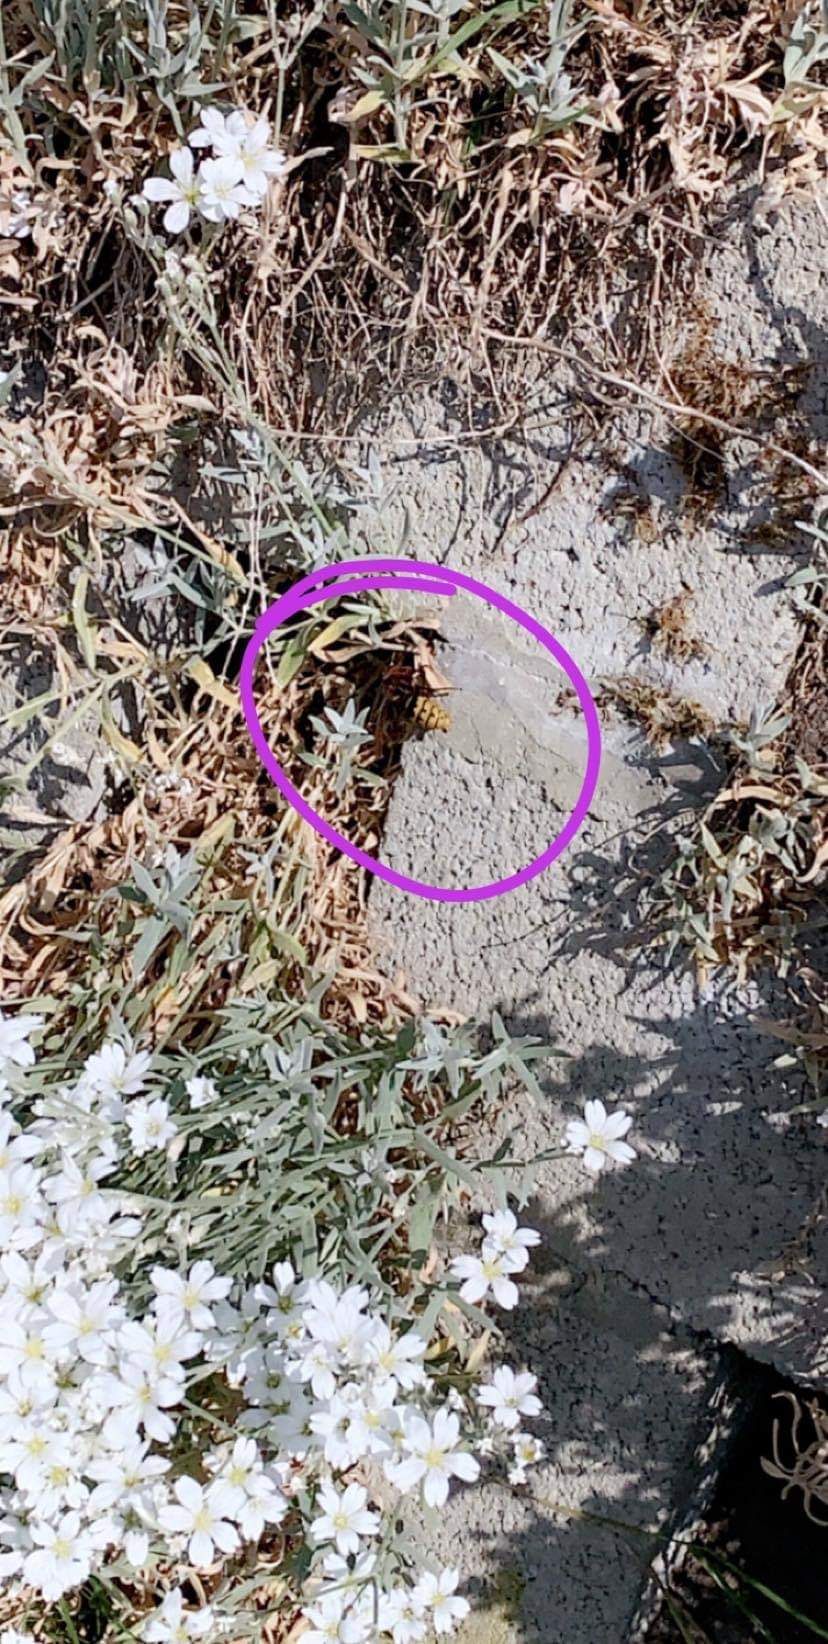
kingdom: Animalia
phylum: Arthropoda
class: Insecta
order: Hymenoptera
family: Vespidae
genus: Vespa
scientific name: Vespa crabro
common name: Hornet
